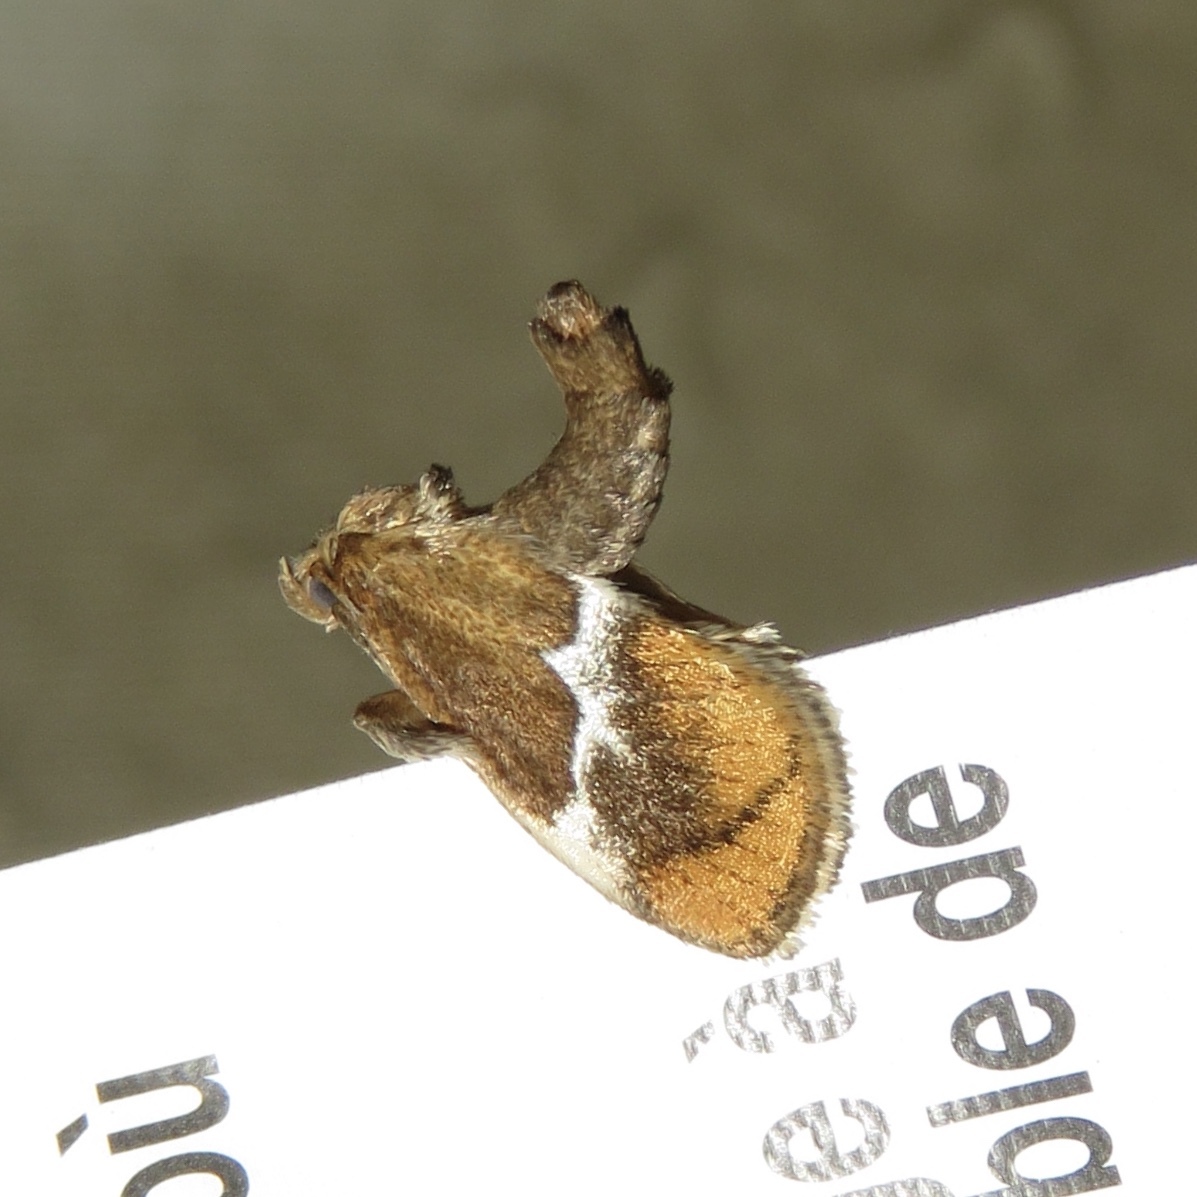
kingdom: Animalia
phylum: Arthropoda
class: Insecta
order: Lepidoptera
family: Limacodidae
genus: Lithacodes
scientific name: Lithacodes fasciola
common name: Yellow-shouldered slug moth
